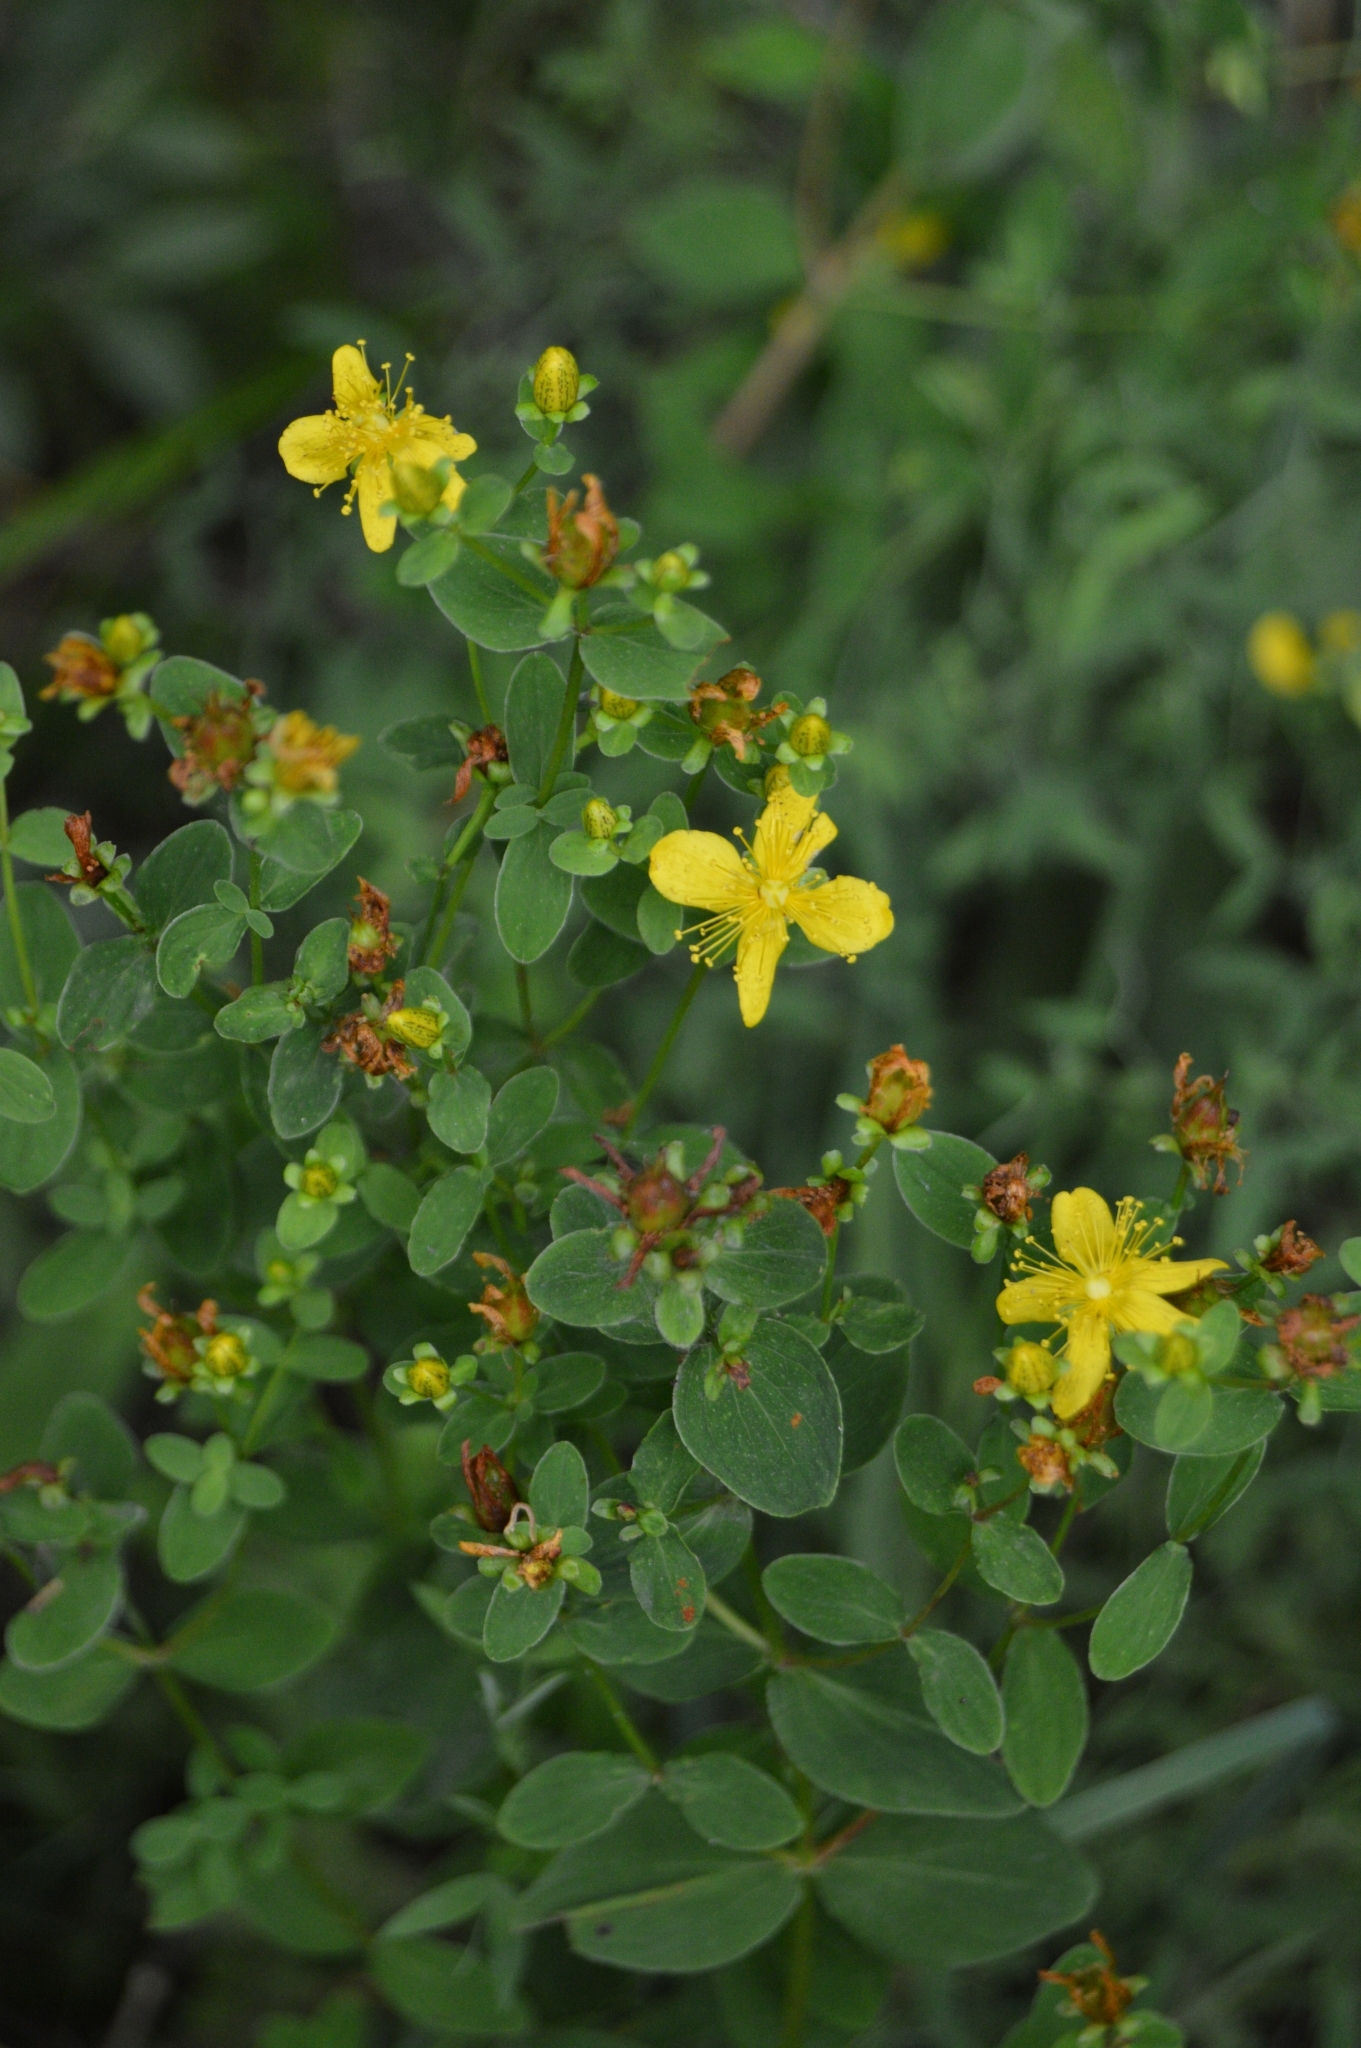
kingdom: Plantae
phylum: Tracheophyta
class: Magnoliopsida
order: Malpighiales
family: Hypericaceae
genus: Hypericum
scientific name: Hypericum maculatum
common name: Imperforate st. john's-wort
